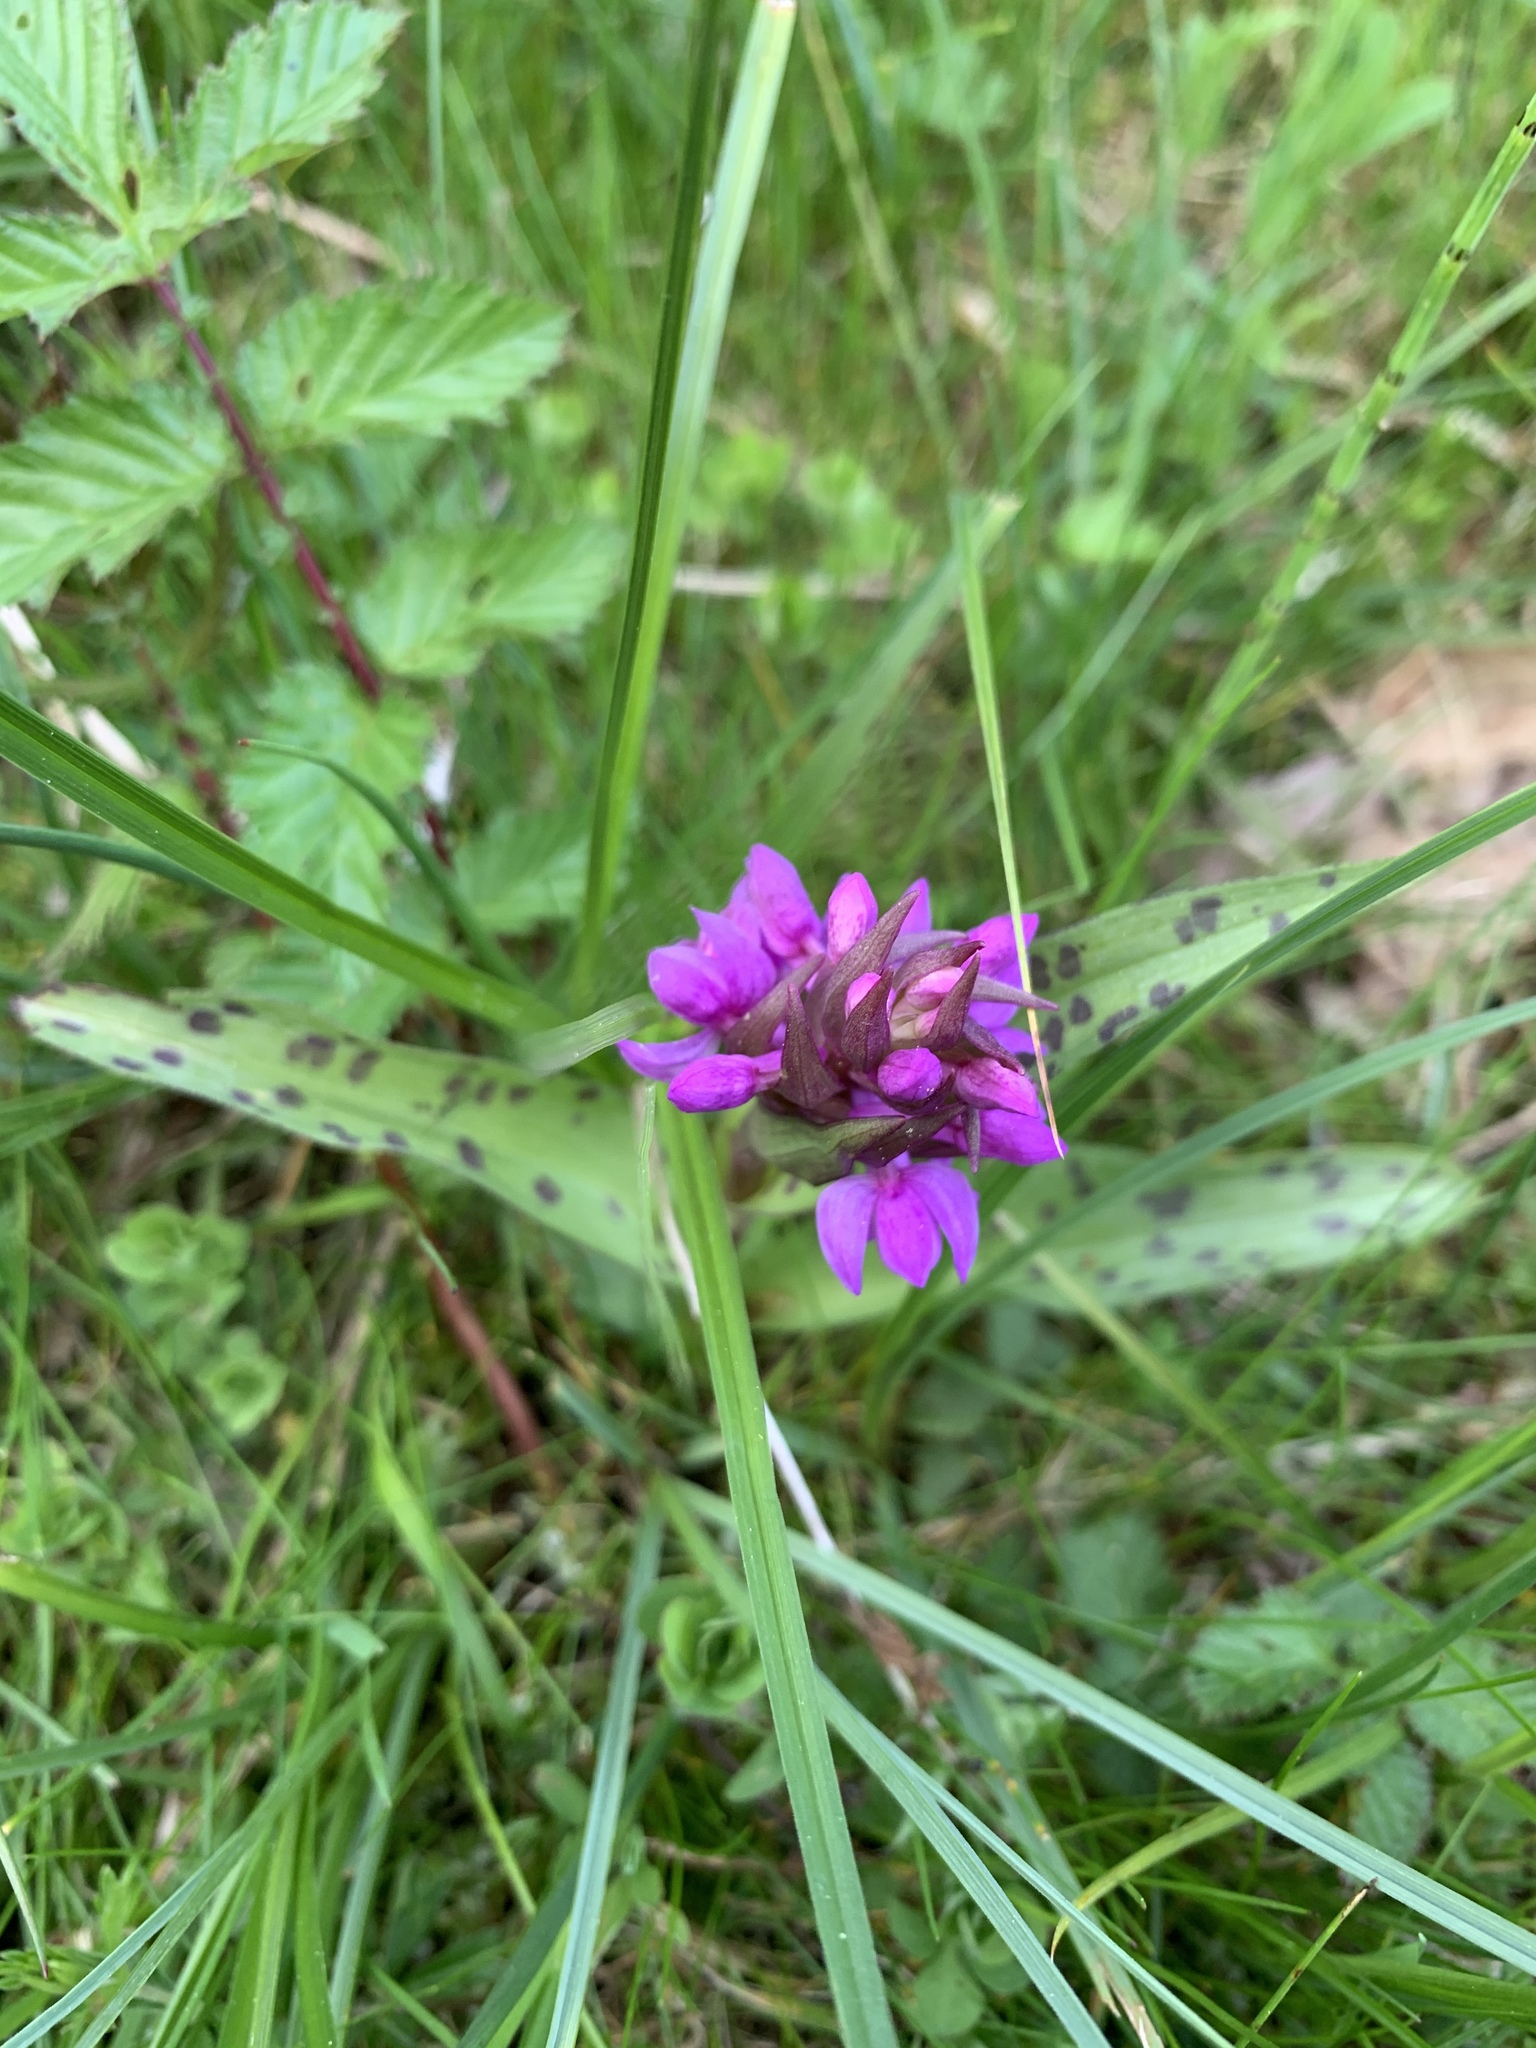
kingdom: Plantae
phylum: Tracheophyta
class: Liliopsida
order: Asparagales
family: Orchidaceae
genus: Dactylorhiza
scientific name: Dactylorhiza majalis
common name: Marsh orchid
